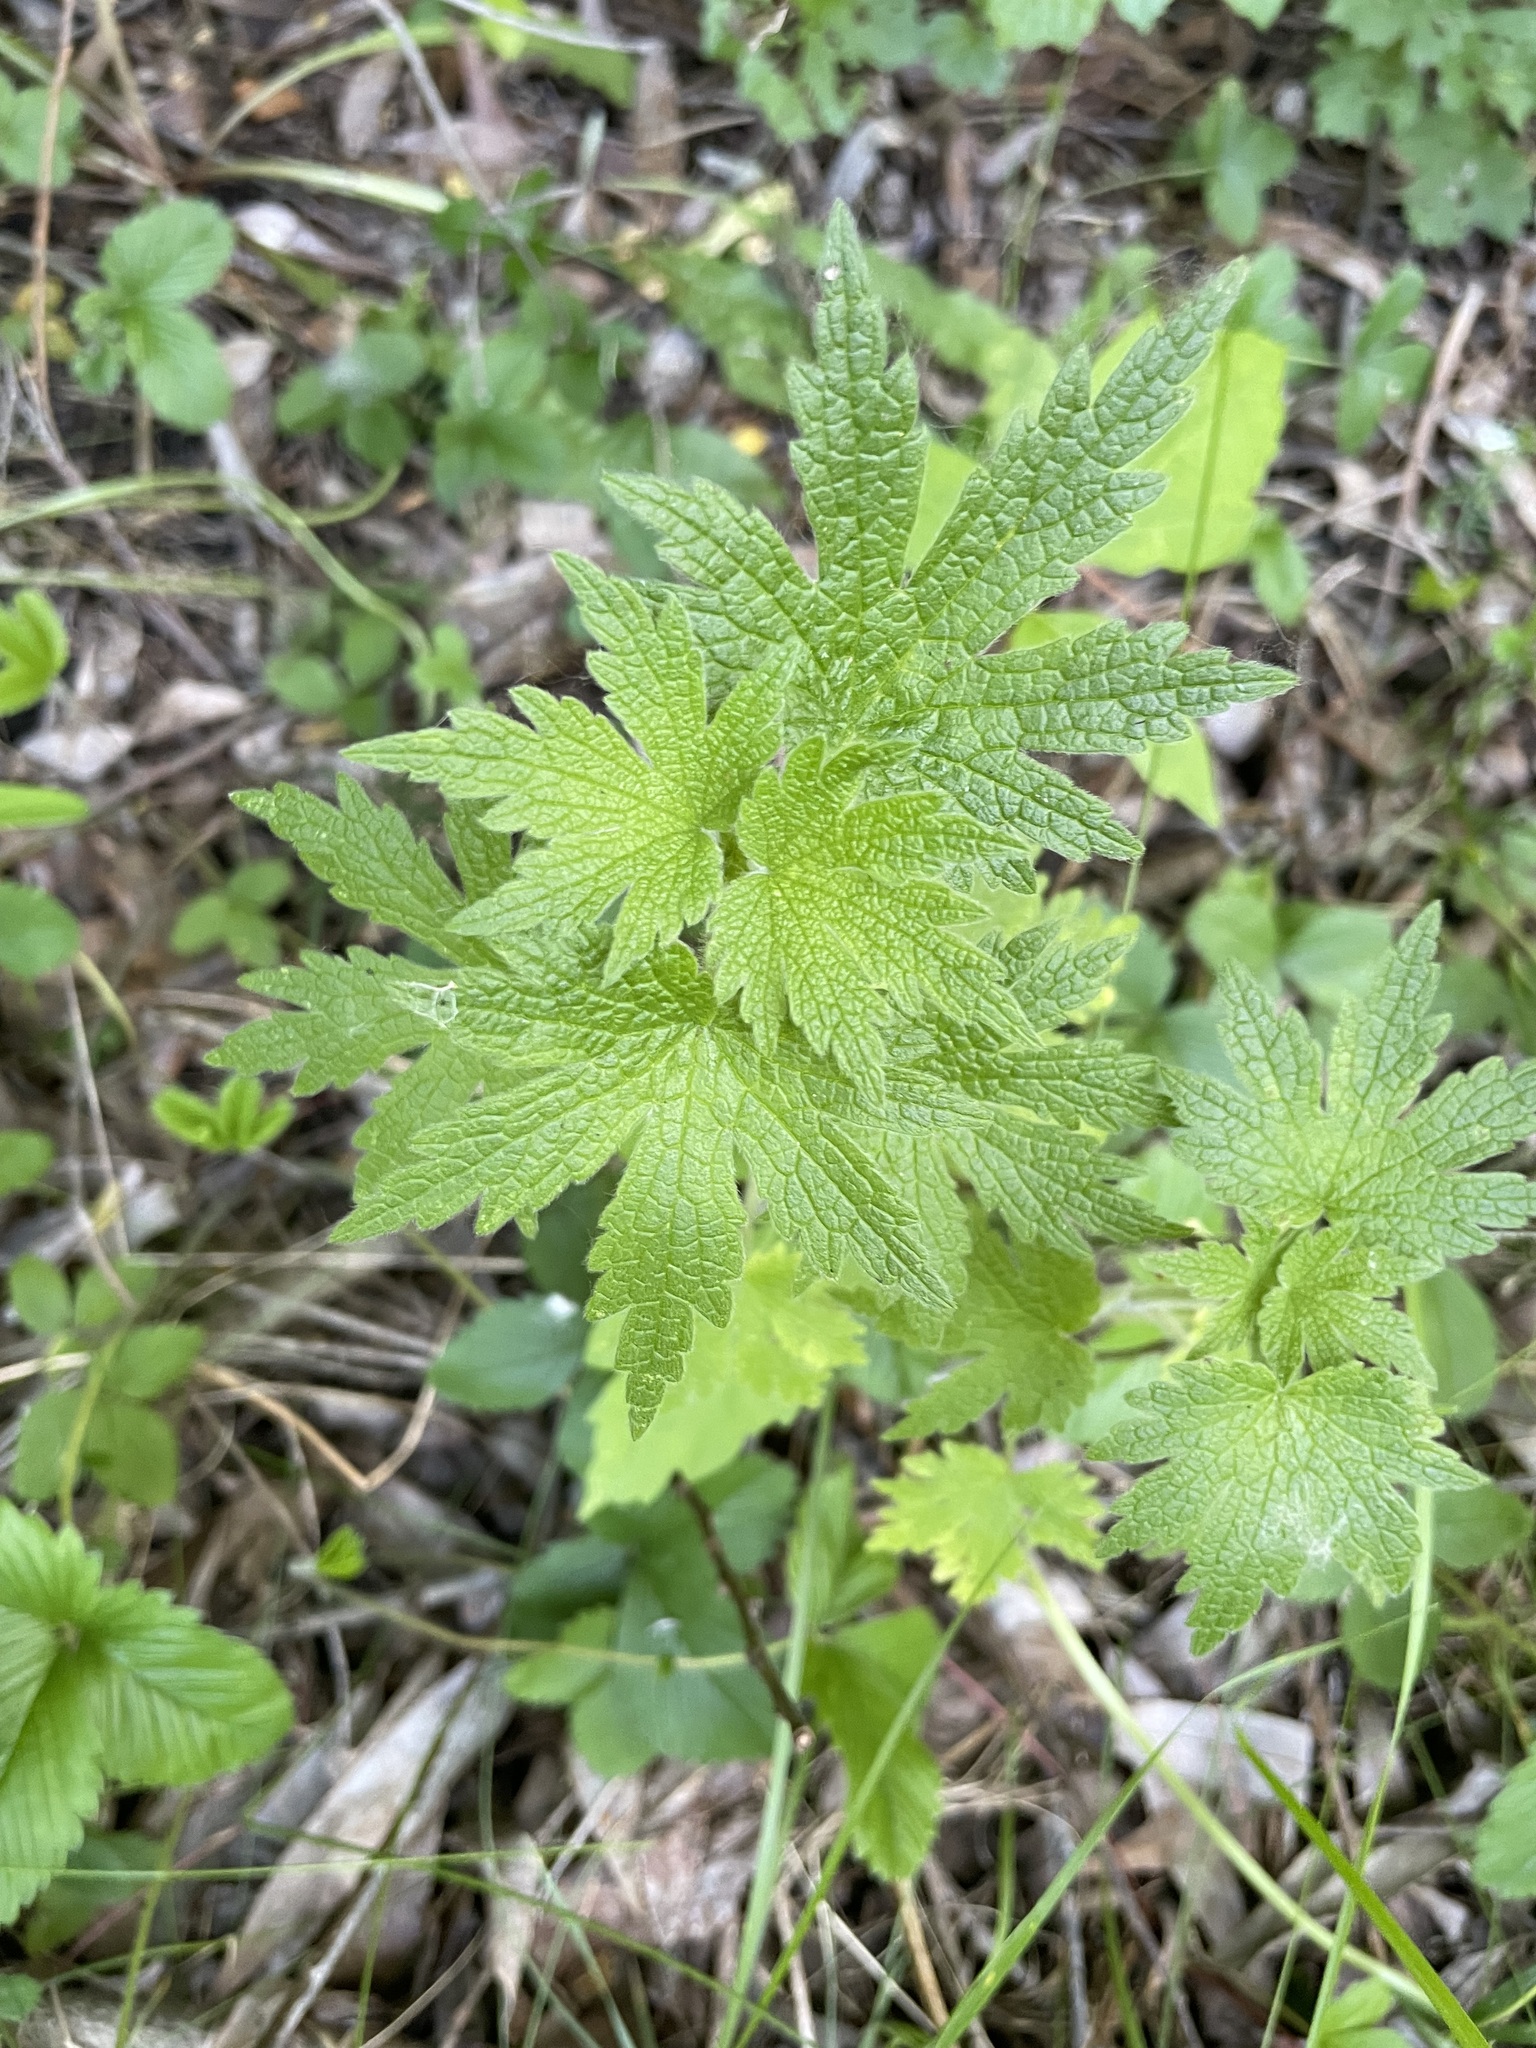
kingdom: Plantae
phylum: Tracheophyta
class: Magnoliopsida
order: Lamiales
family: Lamiaceae
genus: Leonurus
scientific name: Leonurus quinquelobatus
